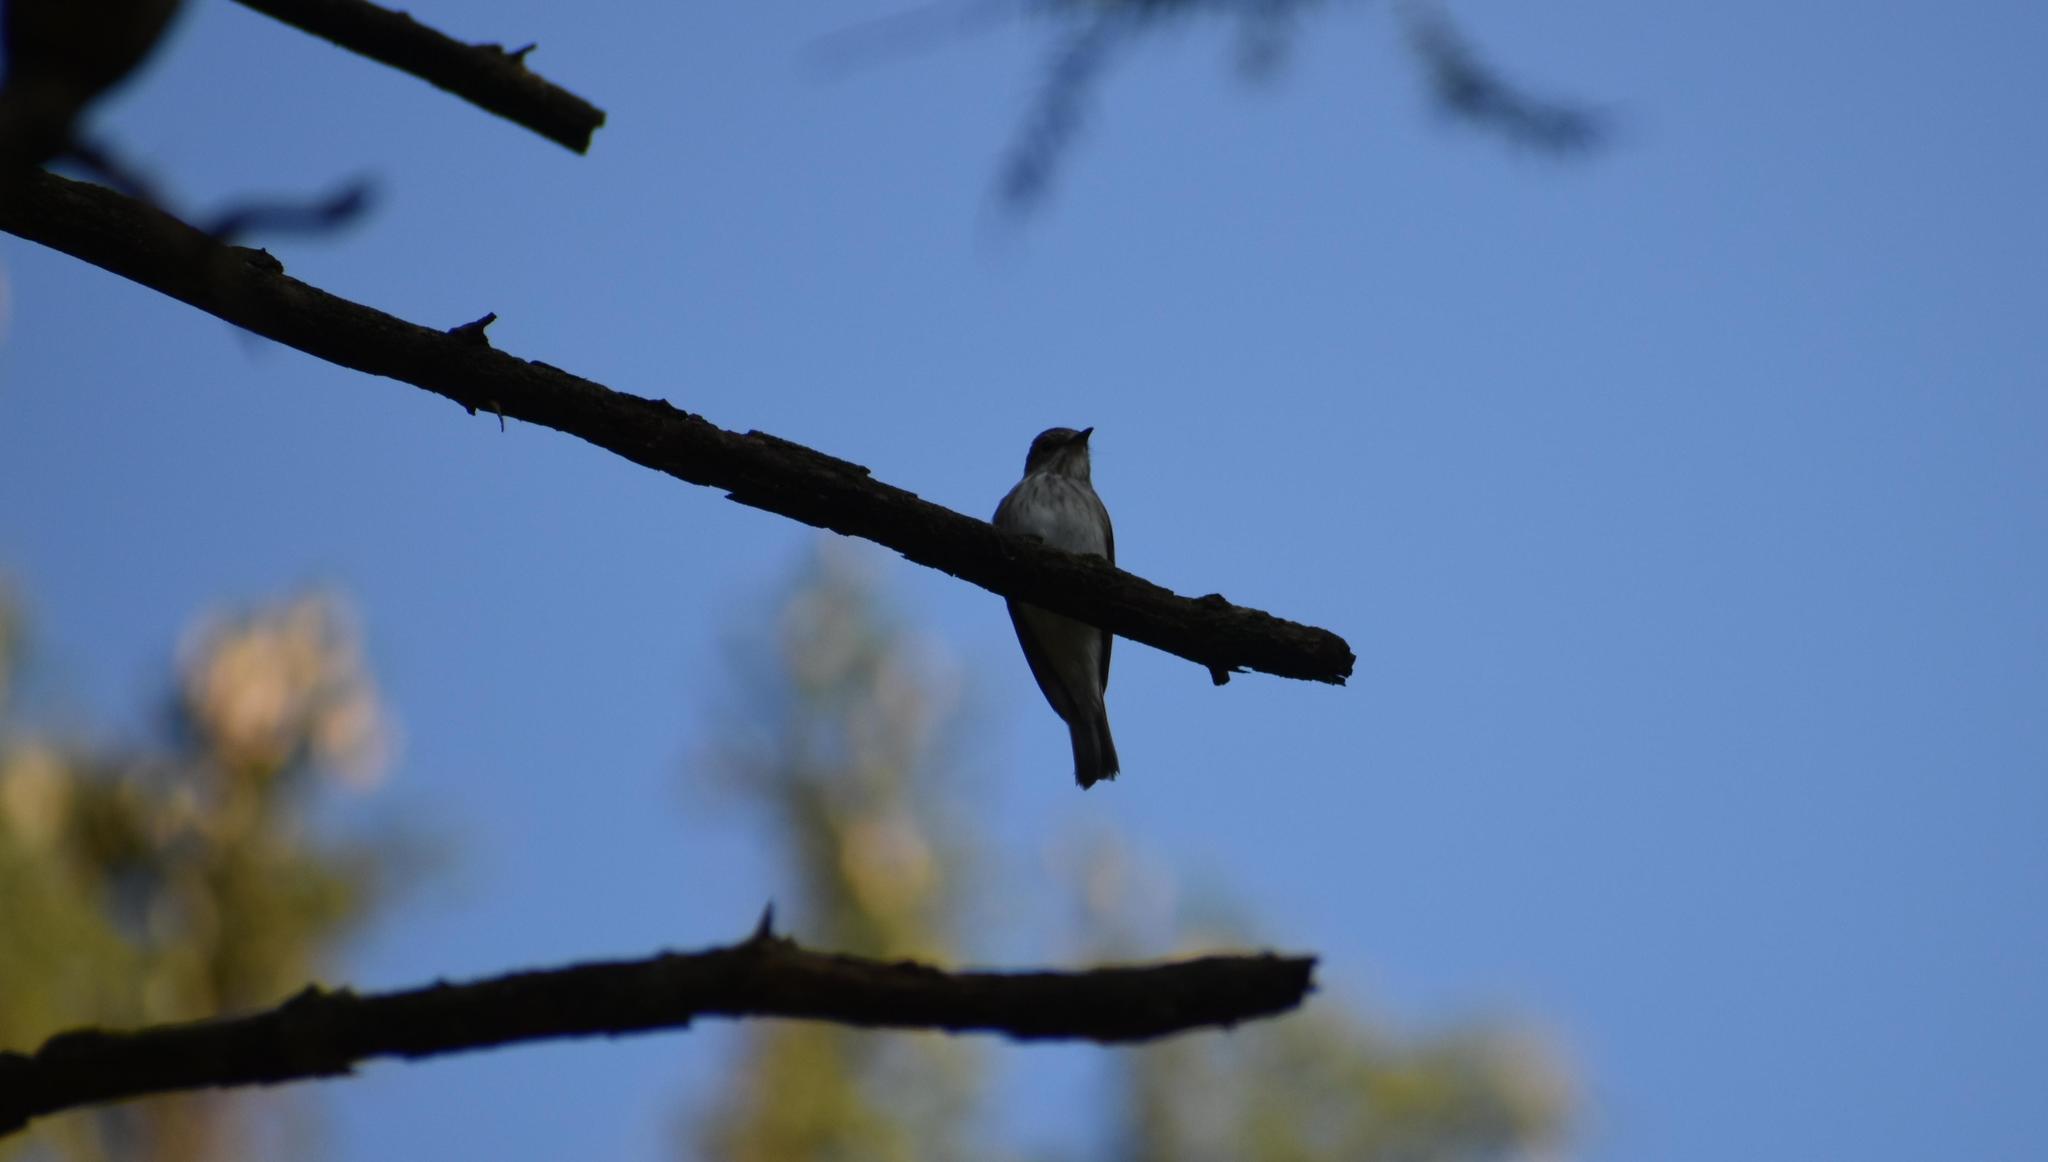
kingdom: Animalia
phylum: Chordata
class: Aves
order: Passeriformes
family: Muscicapidae
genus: Muscicapa
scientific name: Muscicapa striata
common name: Spotted flycatcher
